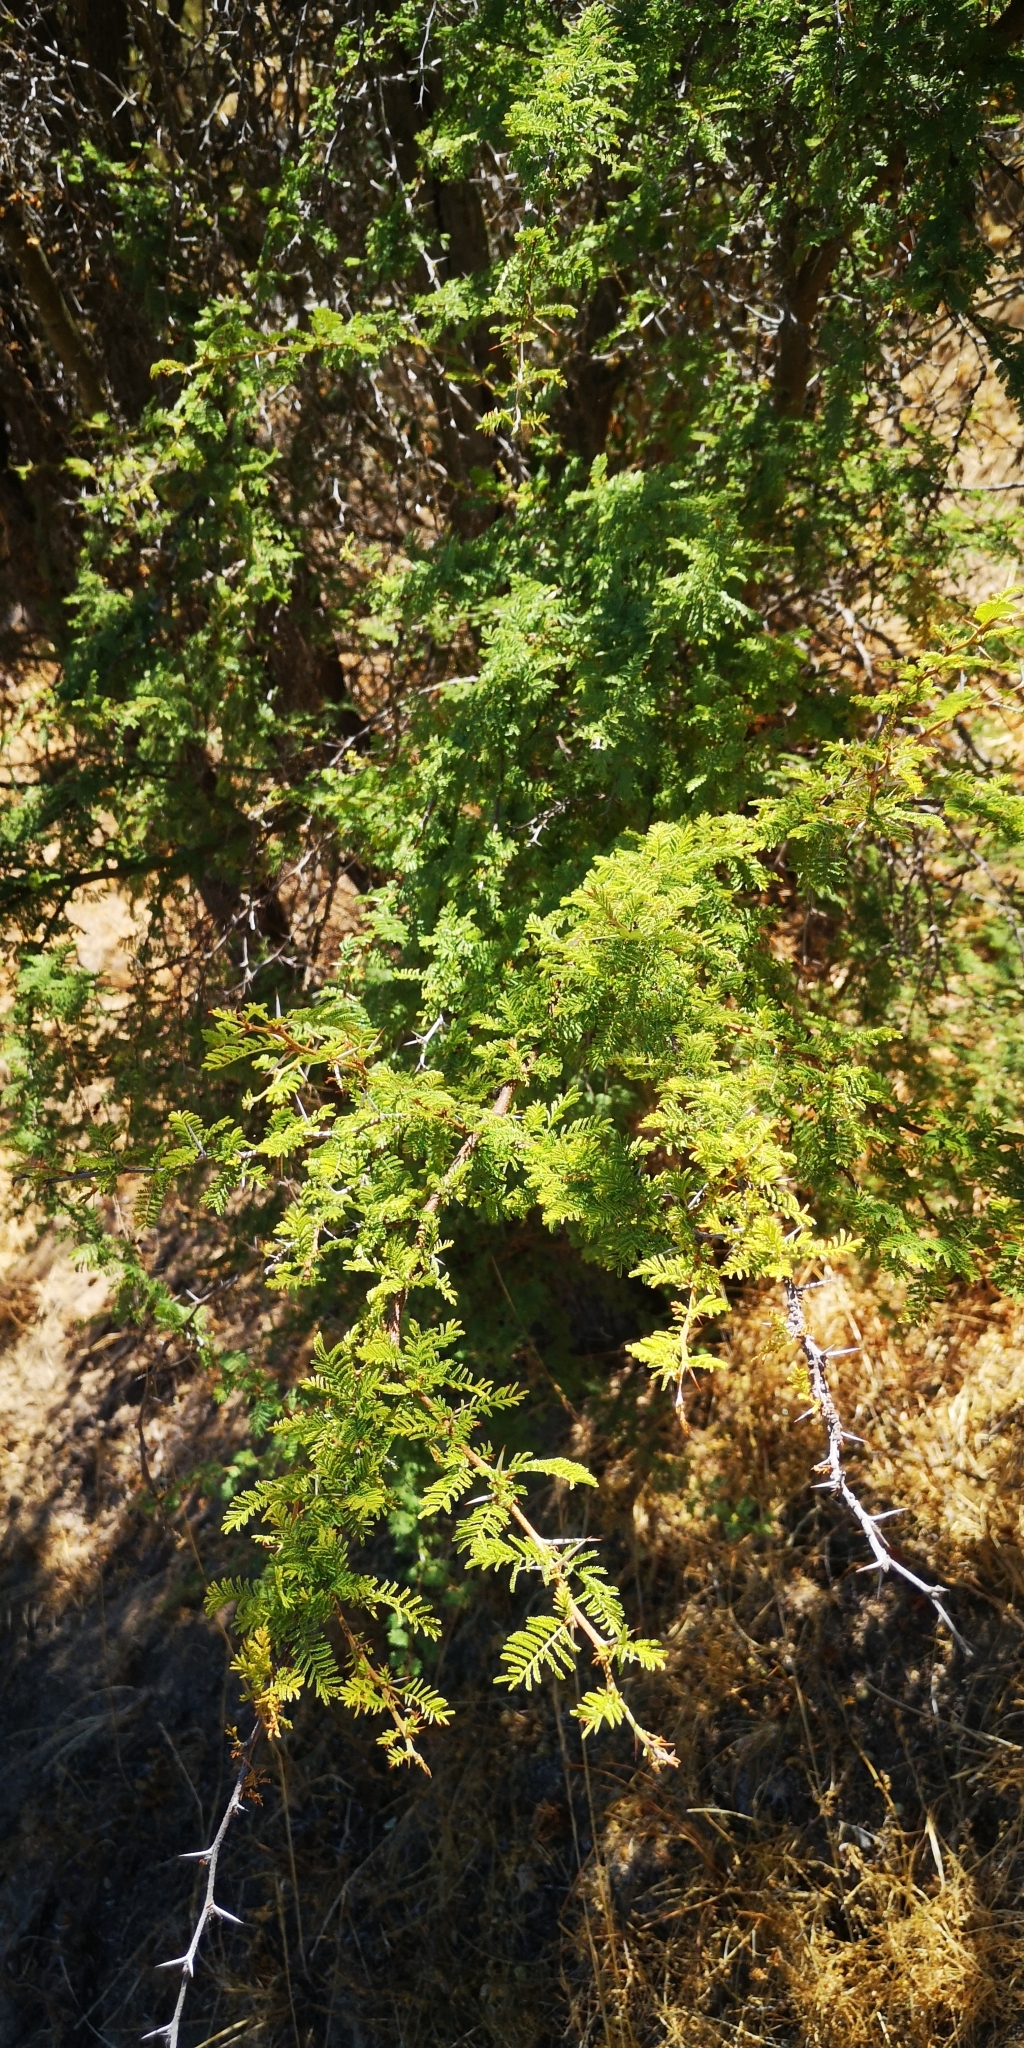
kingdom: Plantae
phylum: Tracheophyta
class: Magnoliopsida
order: Fabales
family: Fabaceae
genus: Vachellia
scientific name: Vachellia caven
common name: Roman cassie
